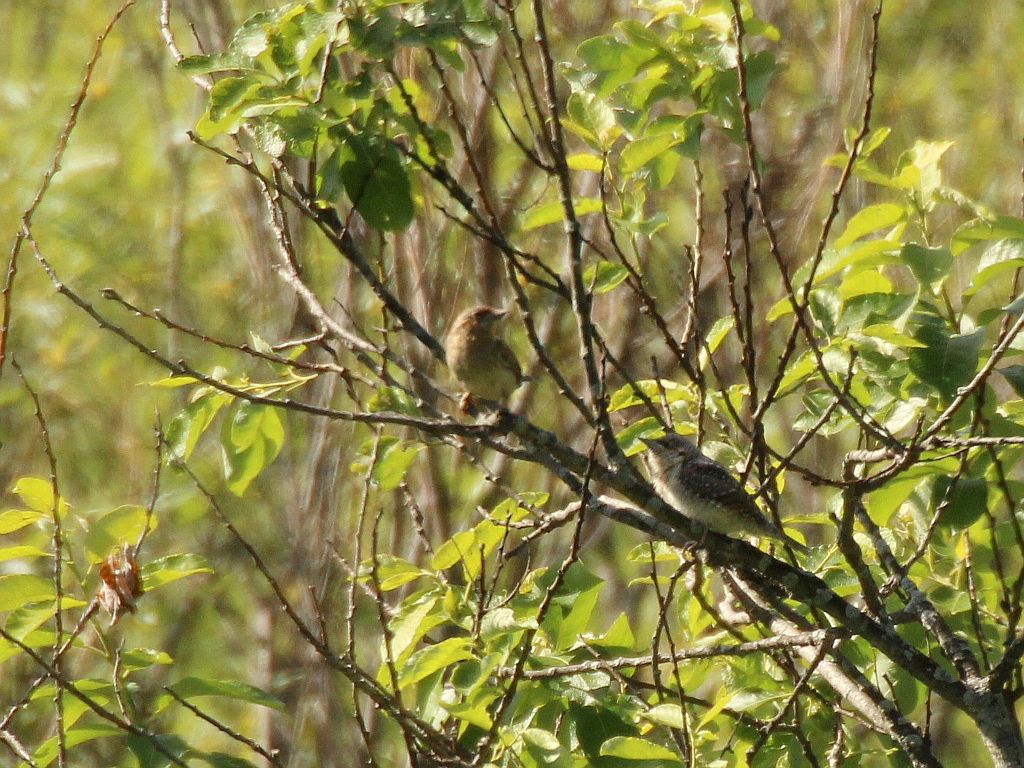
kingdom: Animalia
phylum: Chordata
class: Aves
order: Piciformes
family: Picidae
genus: Jynx
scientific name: Jynx torquilla
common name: Eurasian wryneck
